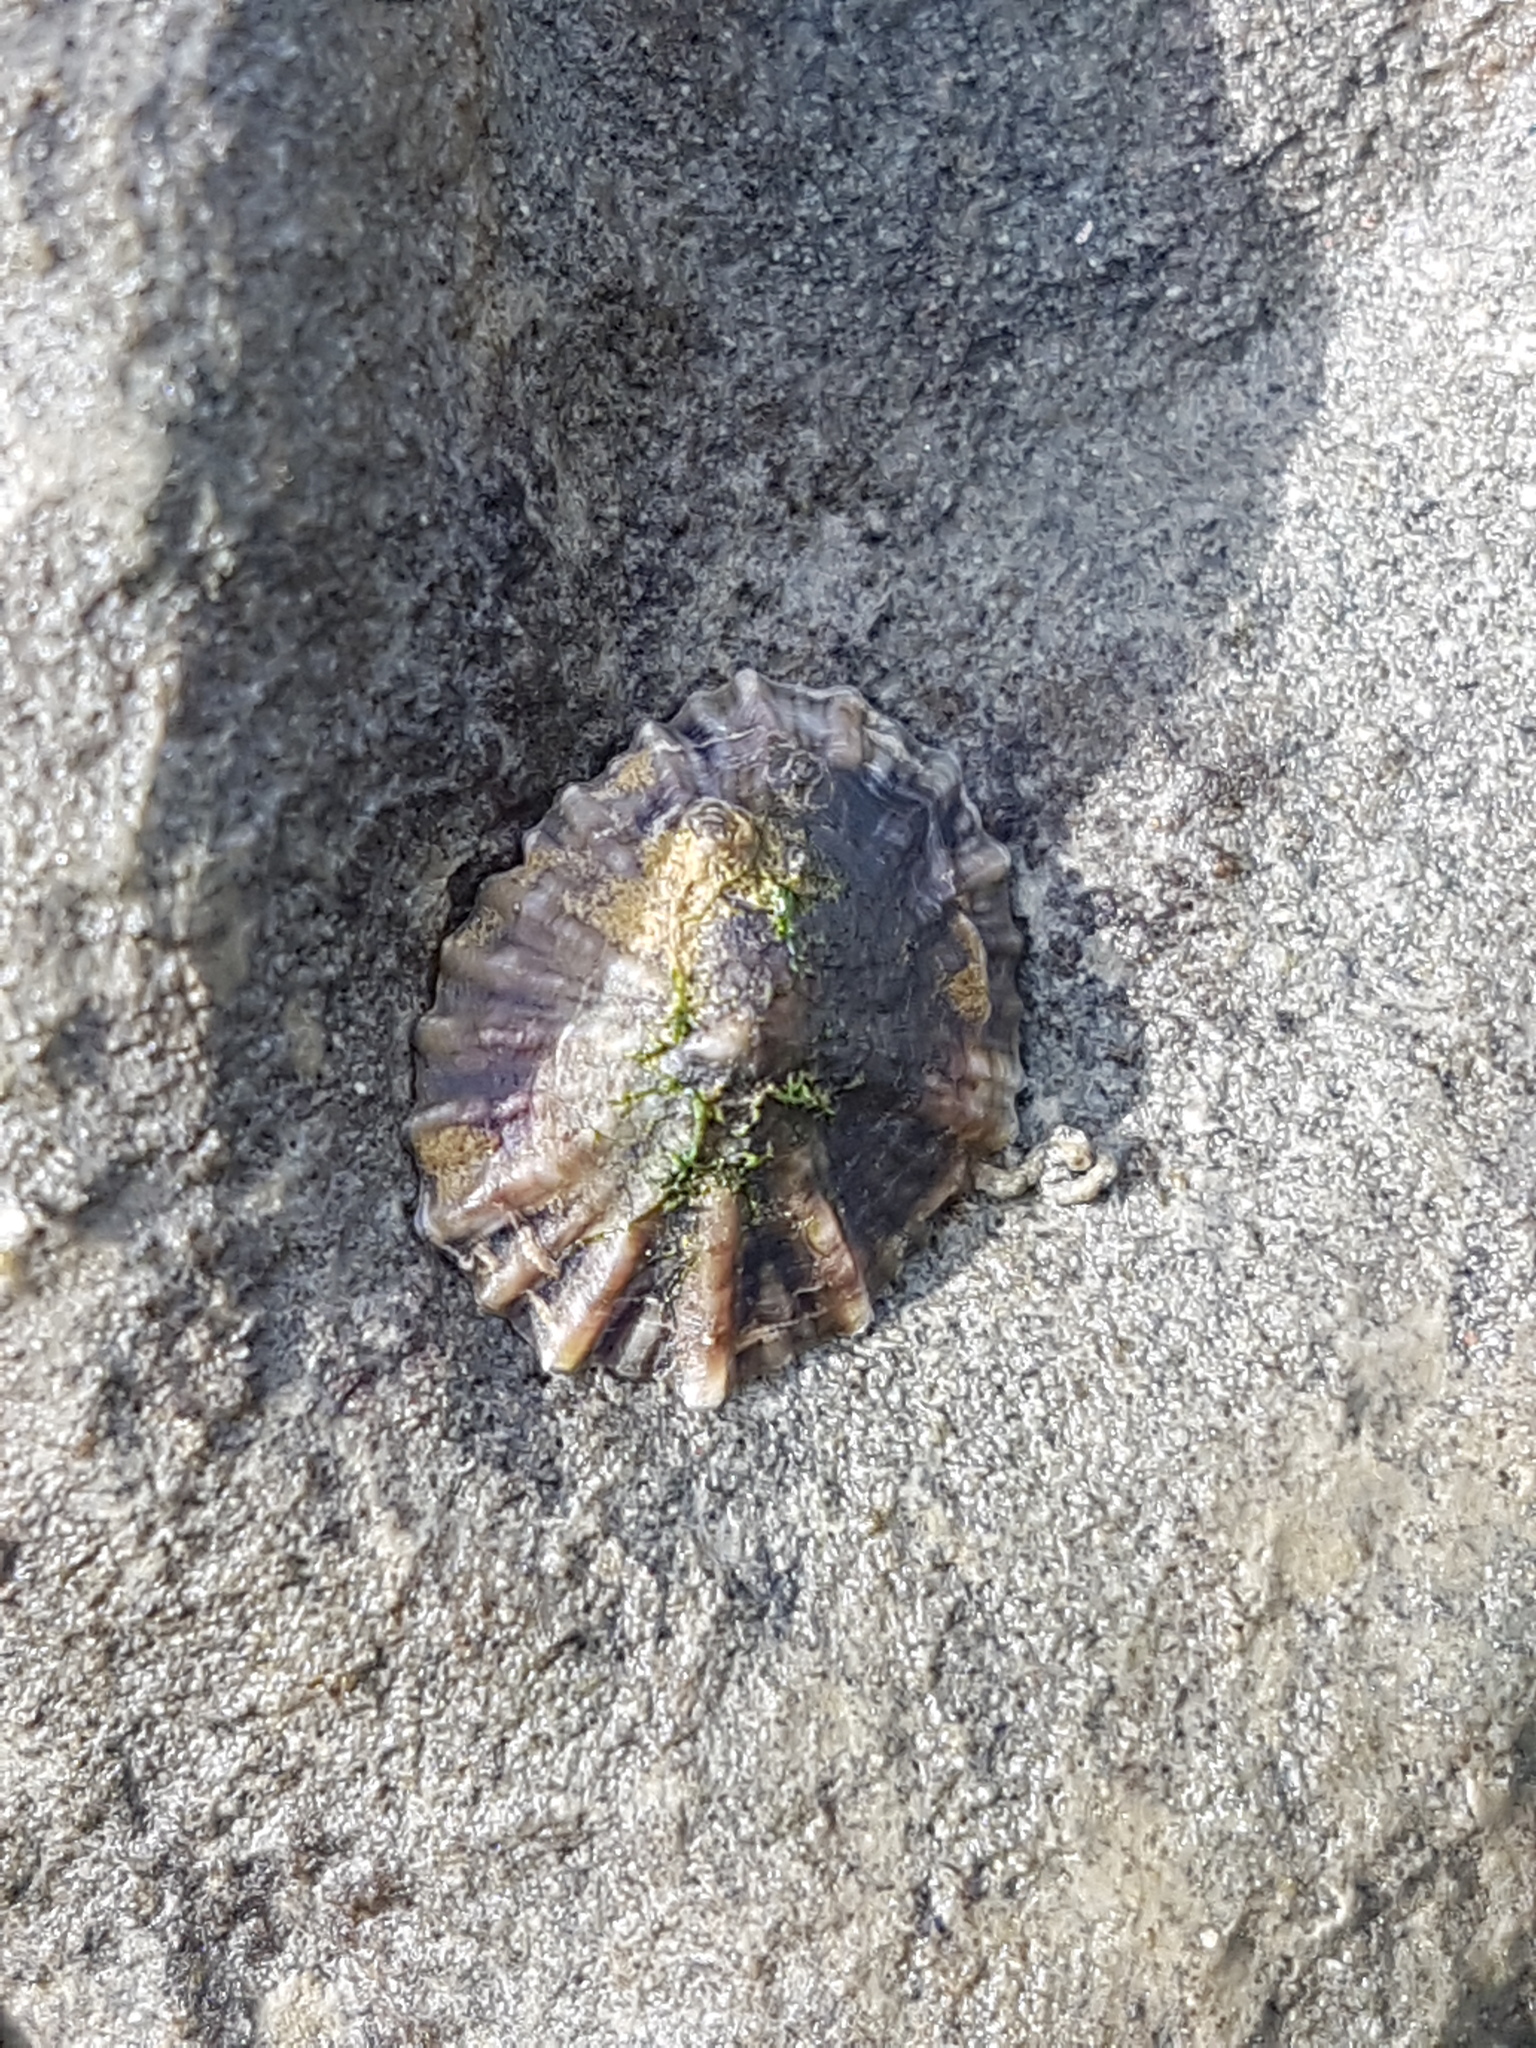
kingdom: Animalia
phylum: Mollusca
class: Gastropoda
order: Siphonariida
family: Siphonariidae
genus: Siphonaria
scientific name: Siphonaria australis
